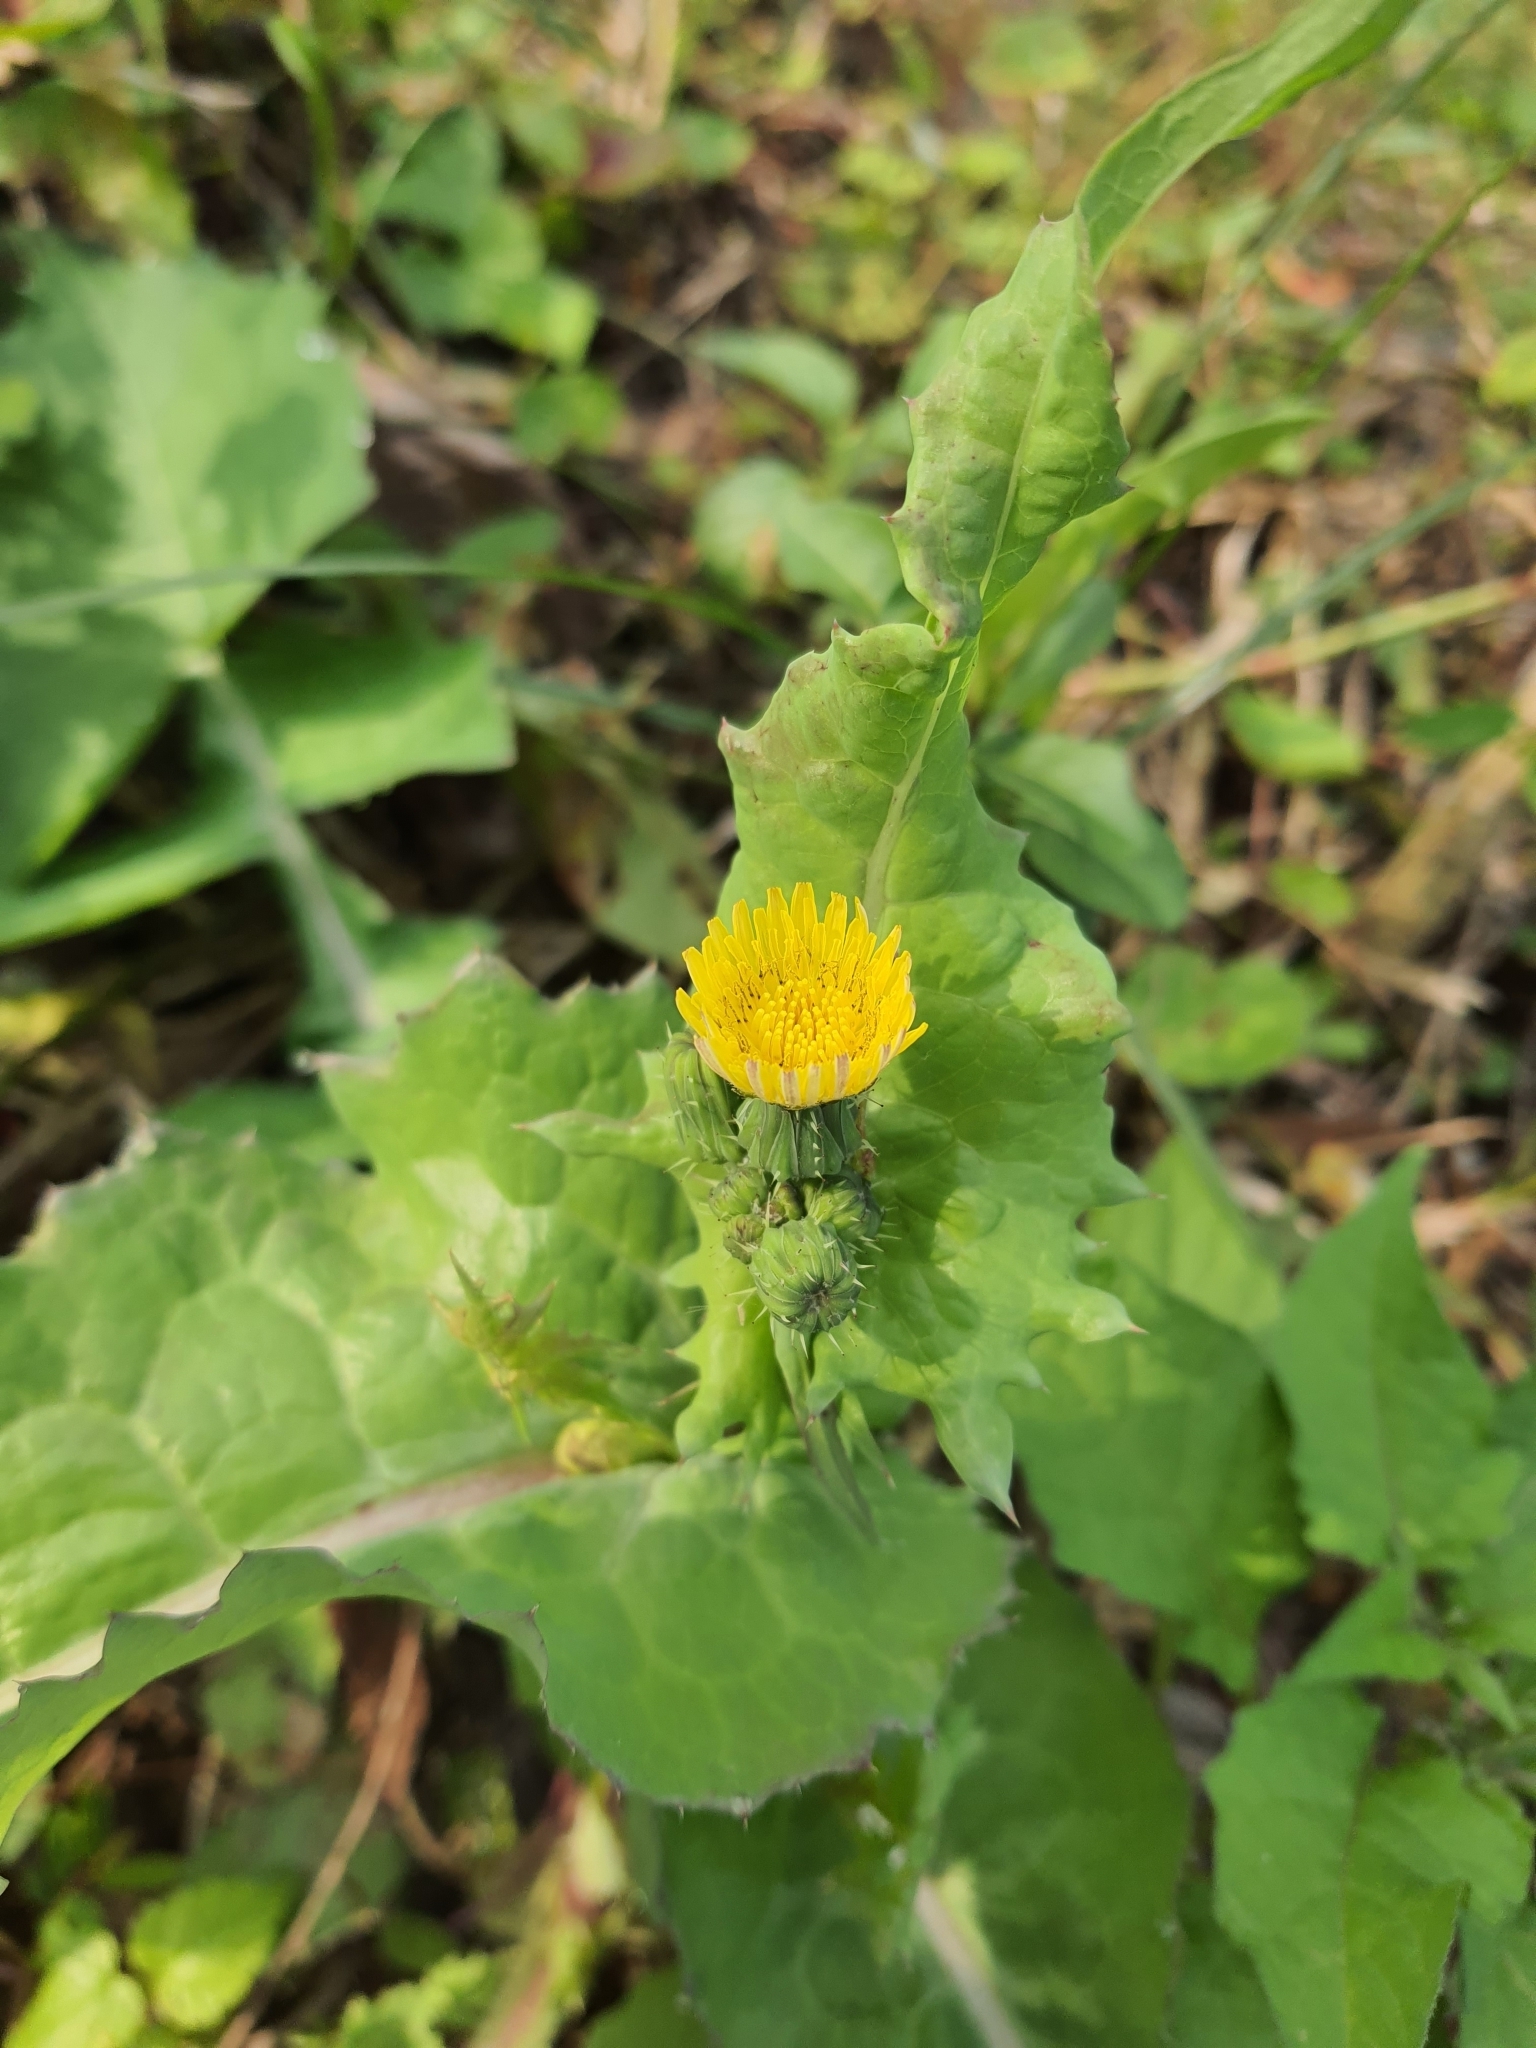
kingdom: Plantae
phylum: Tracheophyta
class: Magnoliopsida
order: Asterales
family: Asteraceae
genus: Sonchus
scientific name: Sonchus oleraceus
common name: Common sowthistle
